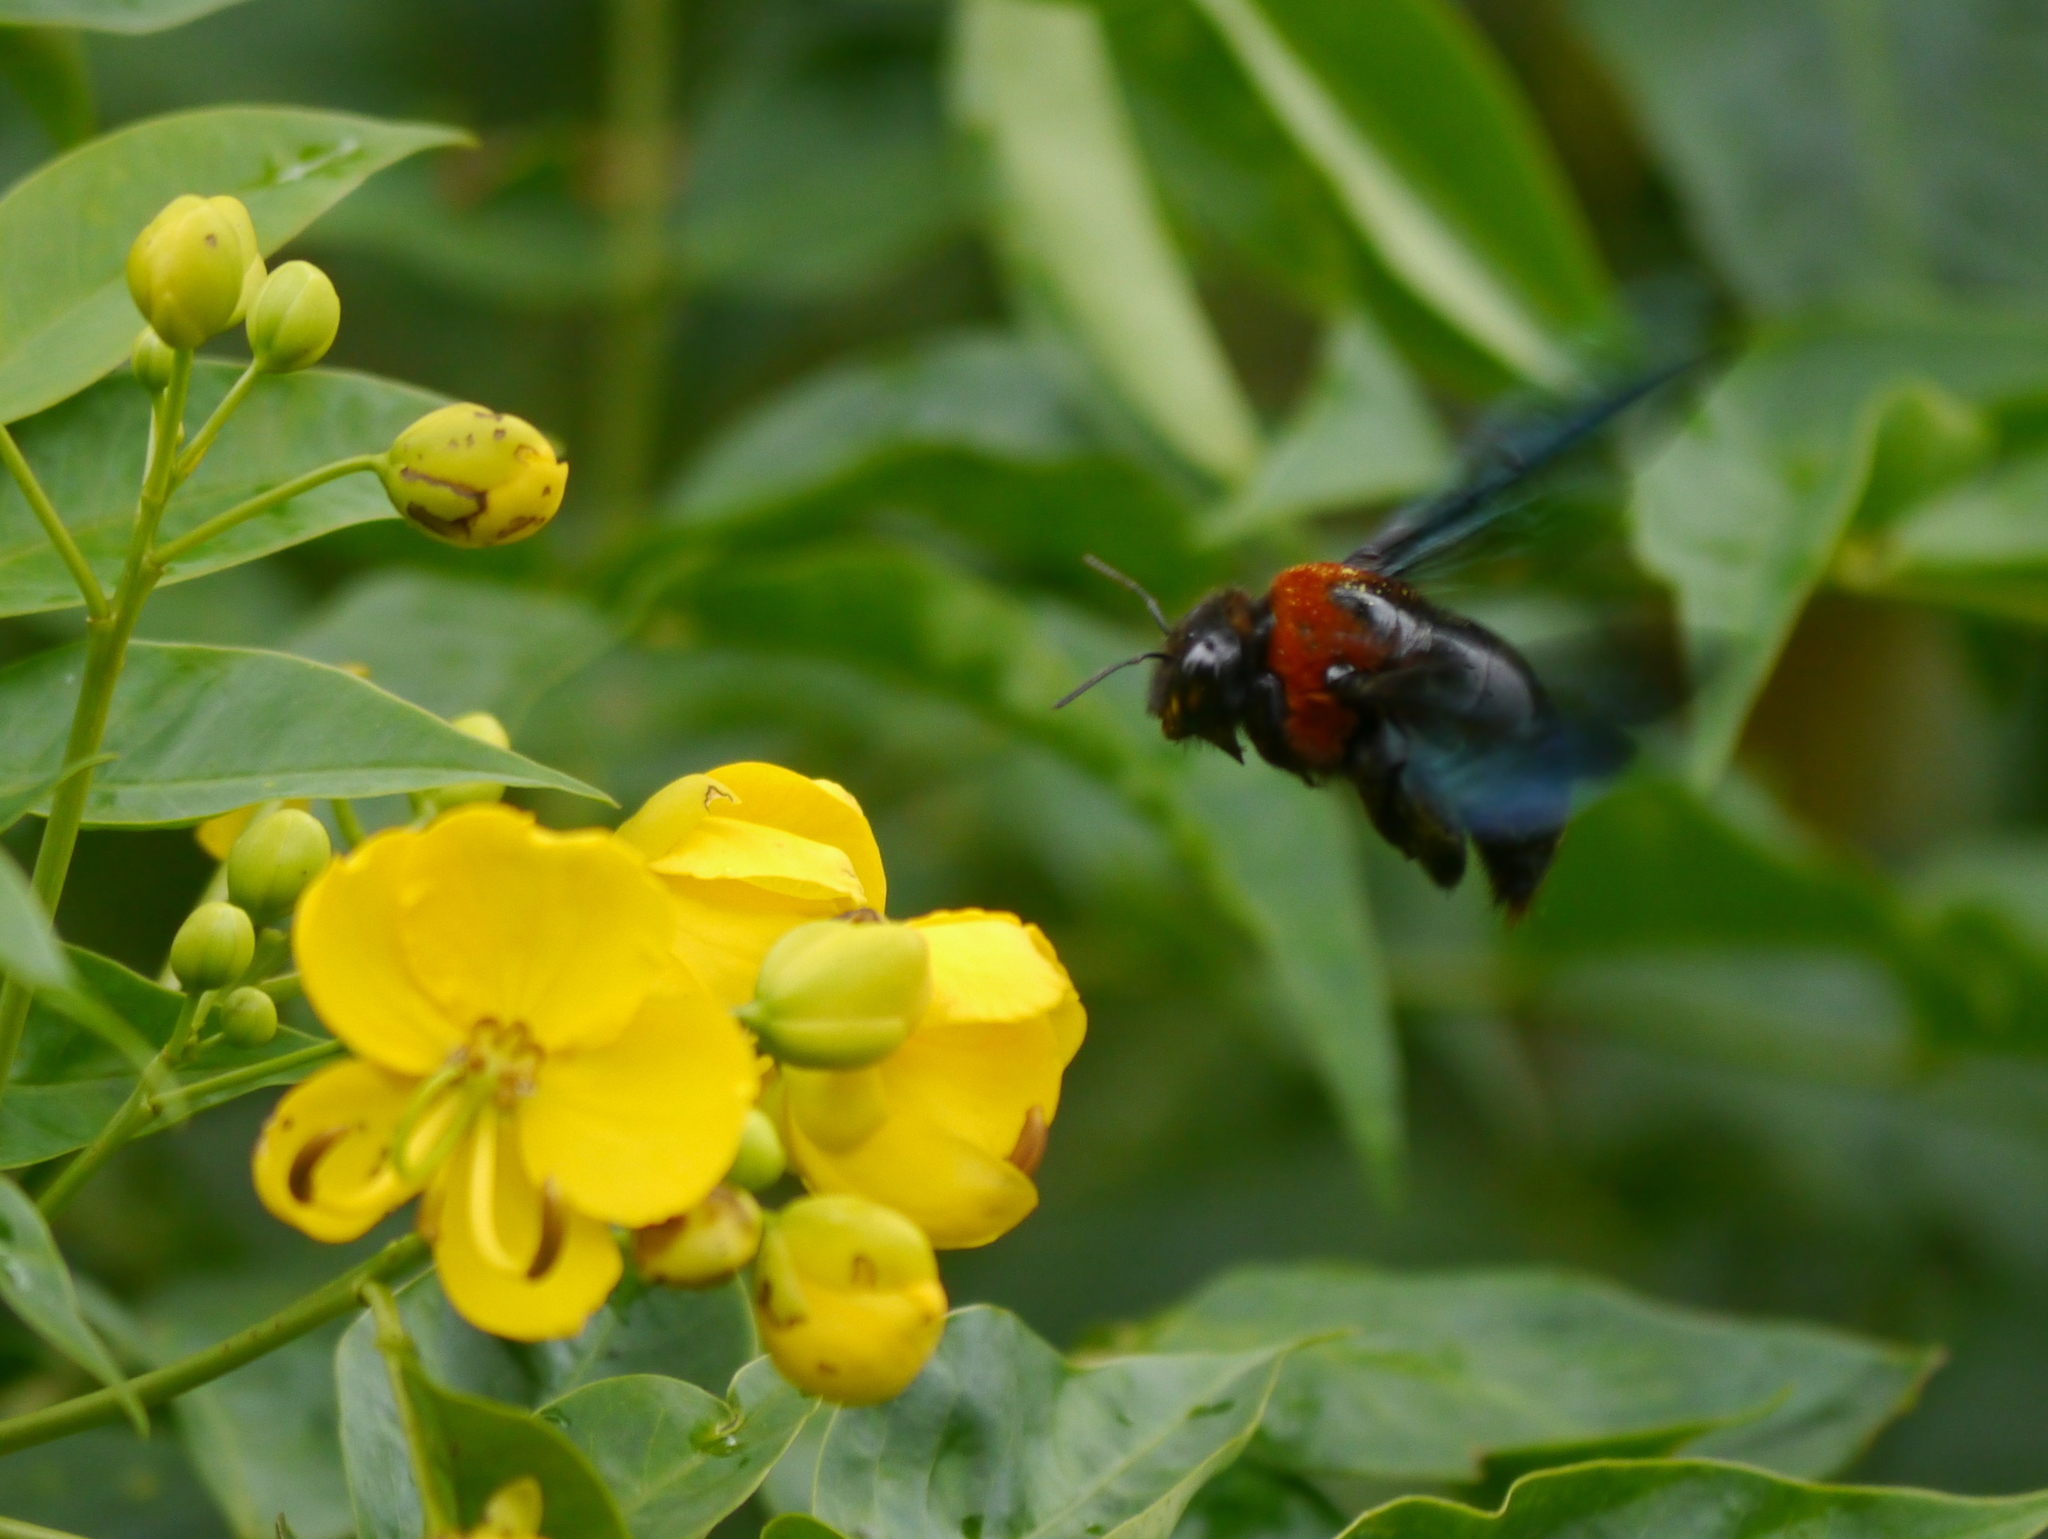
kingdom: Animalia
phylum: Arthropoda
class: Insecta
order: Hymenoptera
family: Apidae
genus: Xylocopa
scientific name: Xylocopa flavorufa
